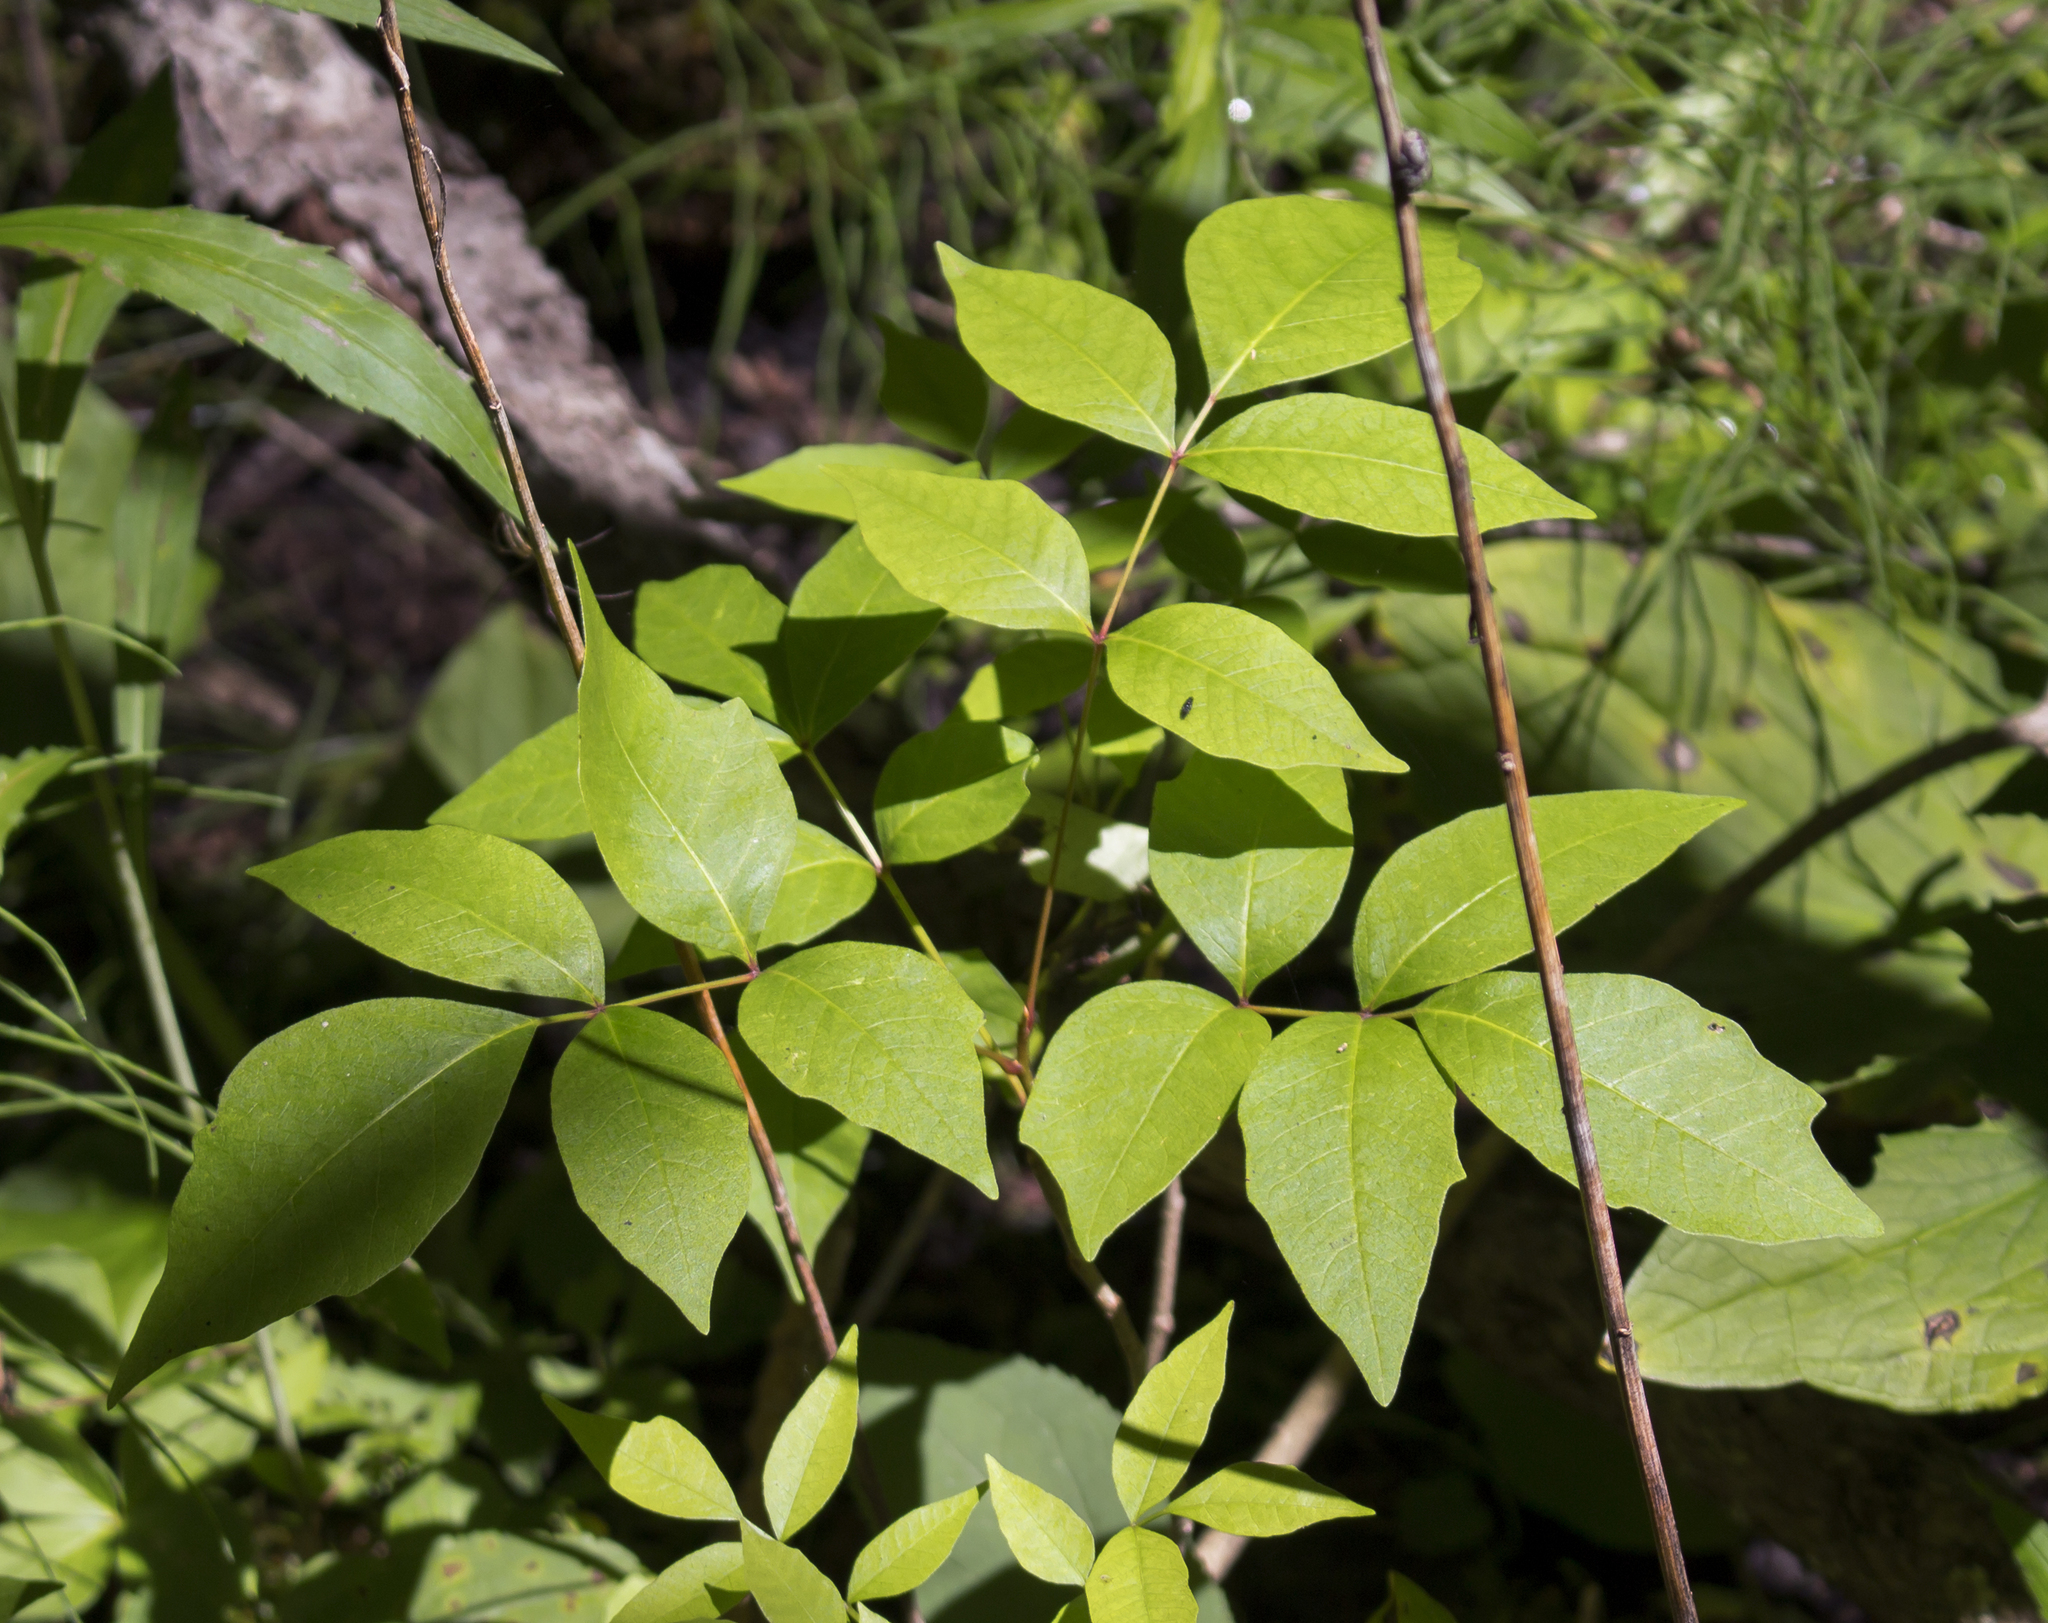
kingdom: Plantae
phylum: Tracheophyta
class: Magnoliopsida
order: Sapindales
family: Anacardiaceae
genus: Toxicodendron
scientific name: Toxicodendron vernix
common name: Poison sumac
